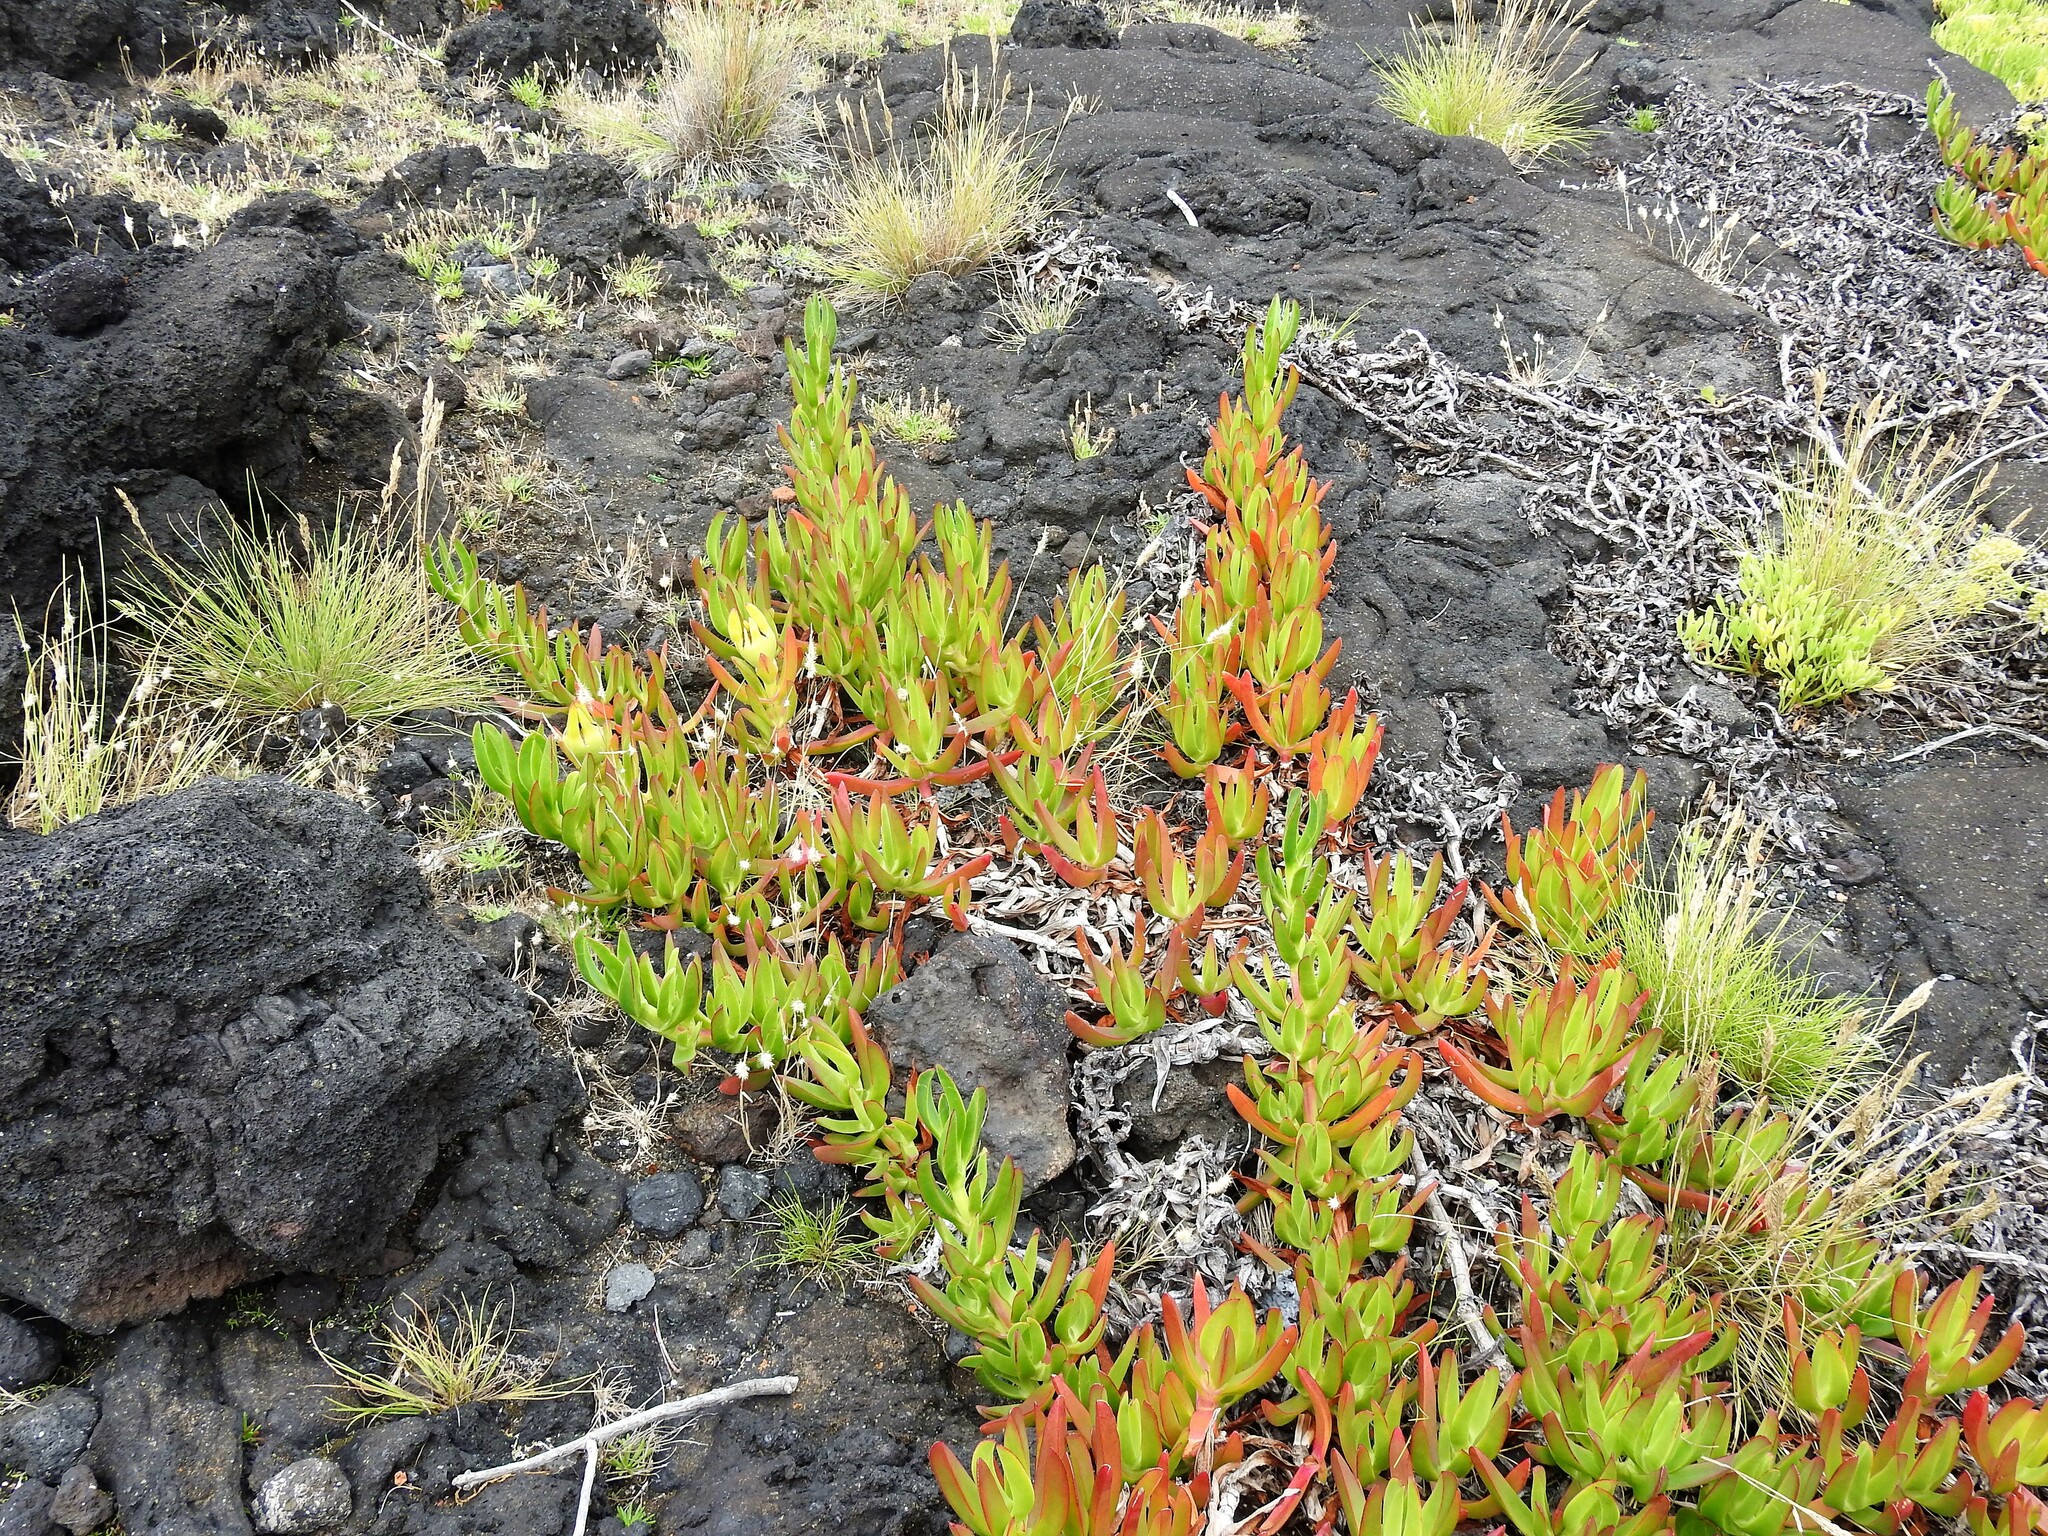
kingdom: Plantae
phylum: Tracheophyta
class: Magnoliopsida
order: Caryophyllales
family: Aizoaceae
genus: Carpobrotus
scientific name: Carpobrotus edulis
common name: Hottentot-fig
